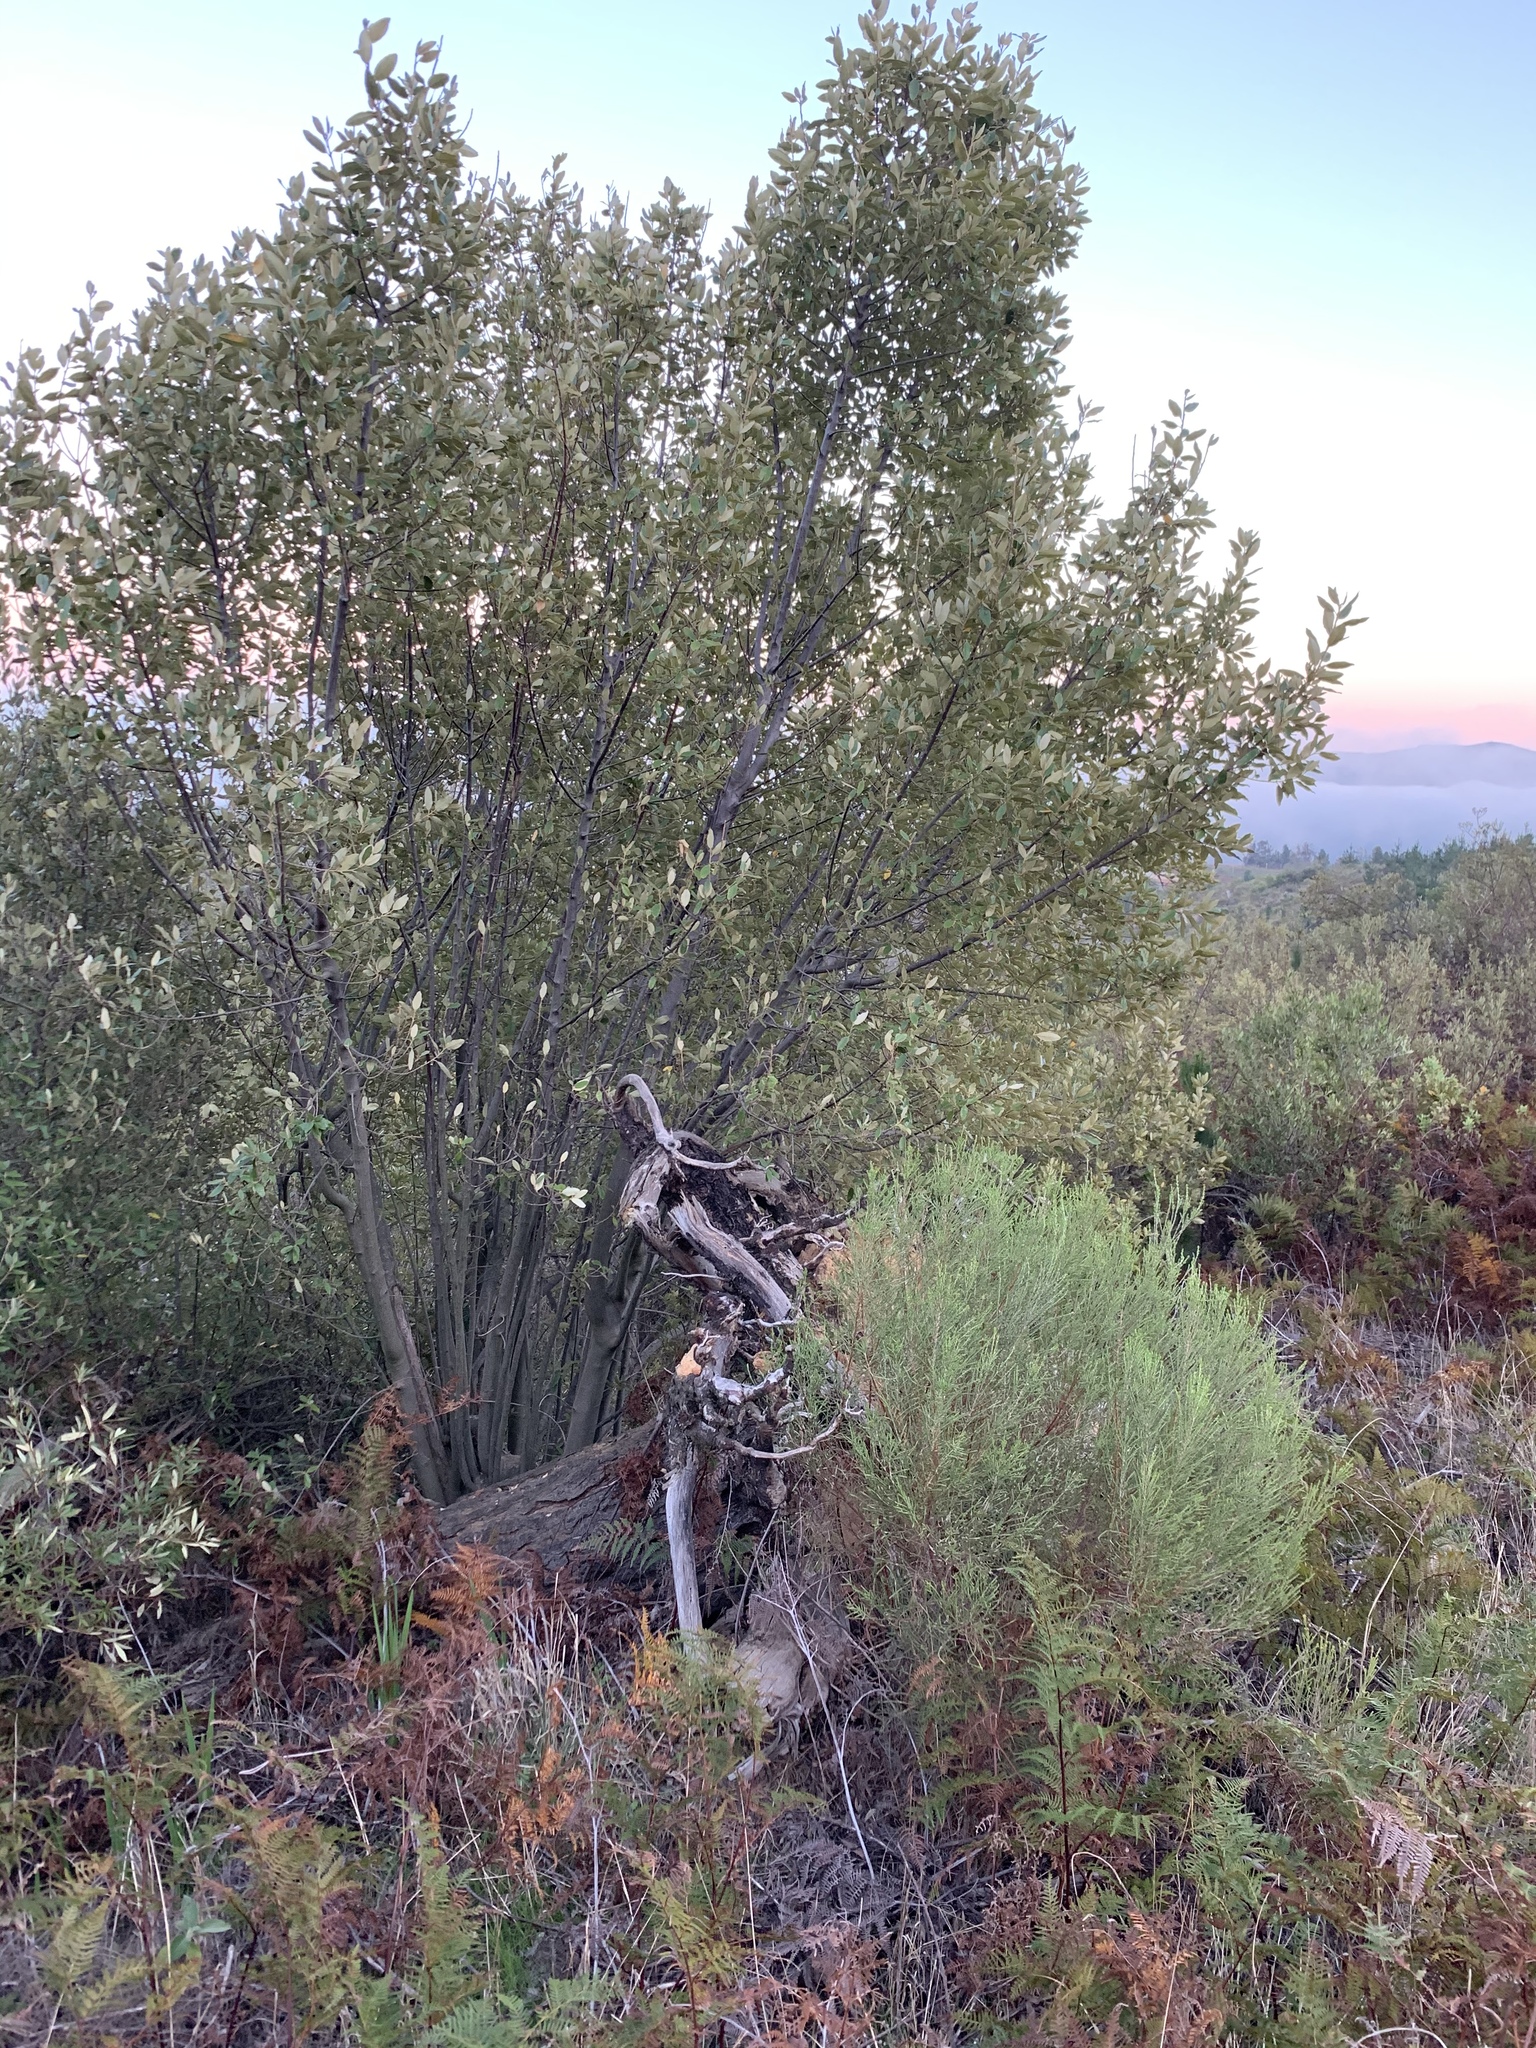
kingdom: Plantae
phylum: Tracheophyta
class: Magnoliopsida
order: Malpighiales
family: Achariaceae
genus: Kiggelaria
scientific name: Kiggelaria africana
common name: Wild peach
